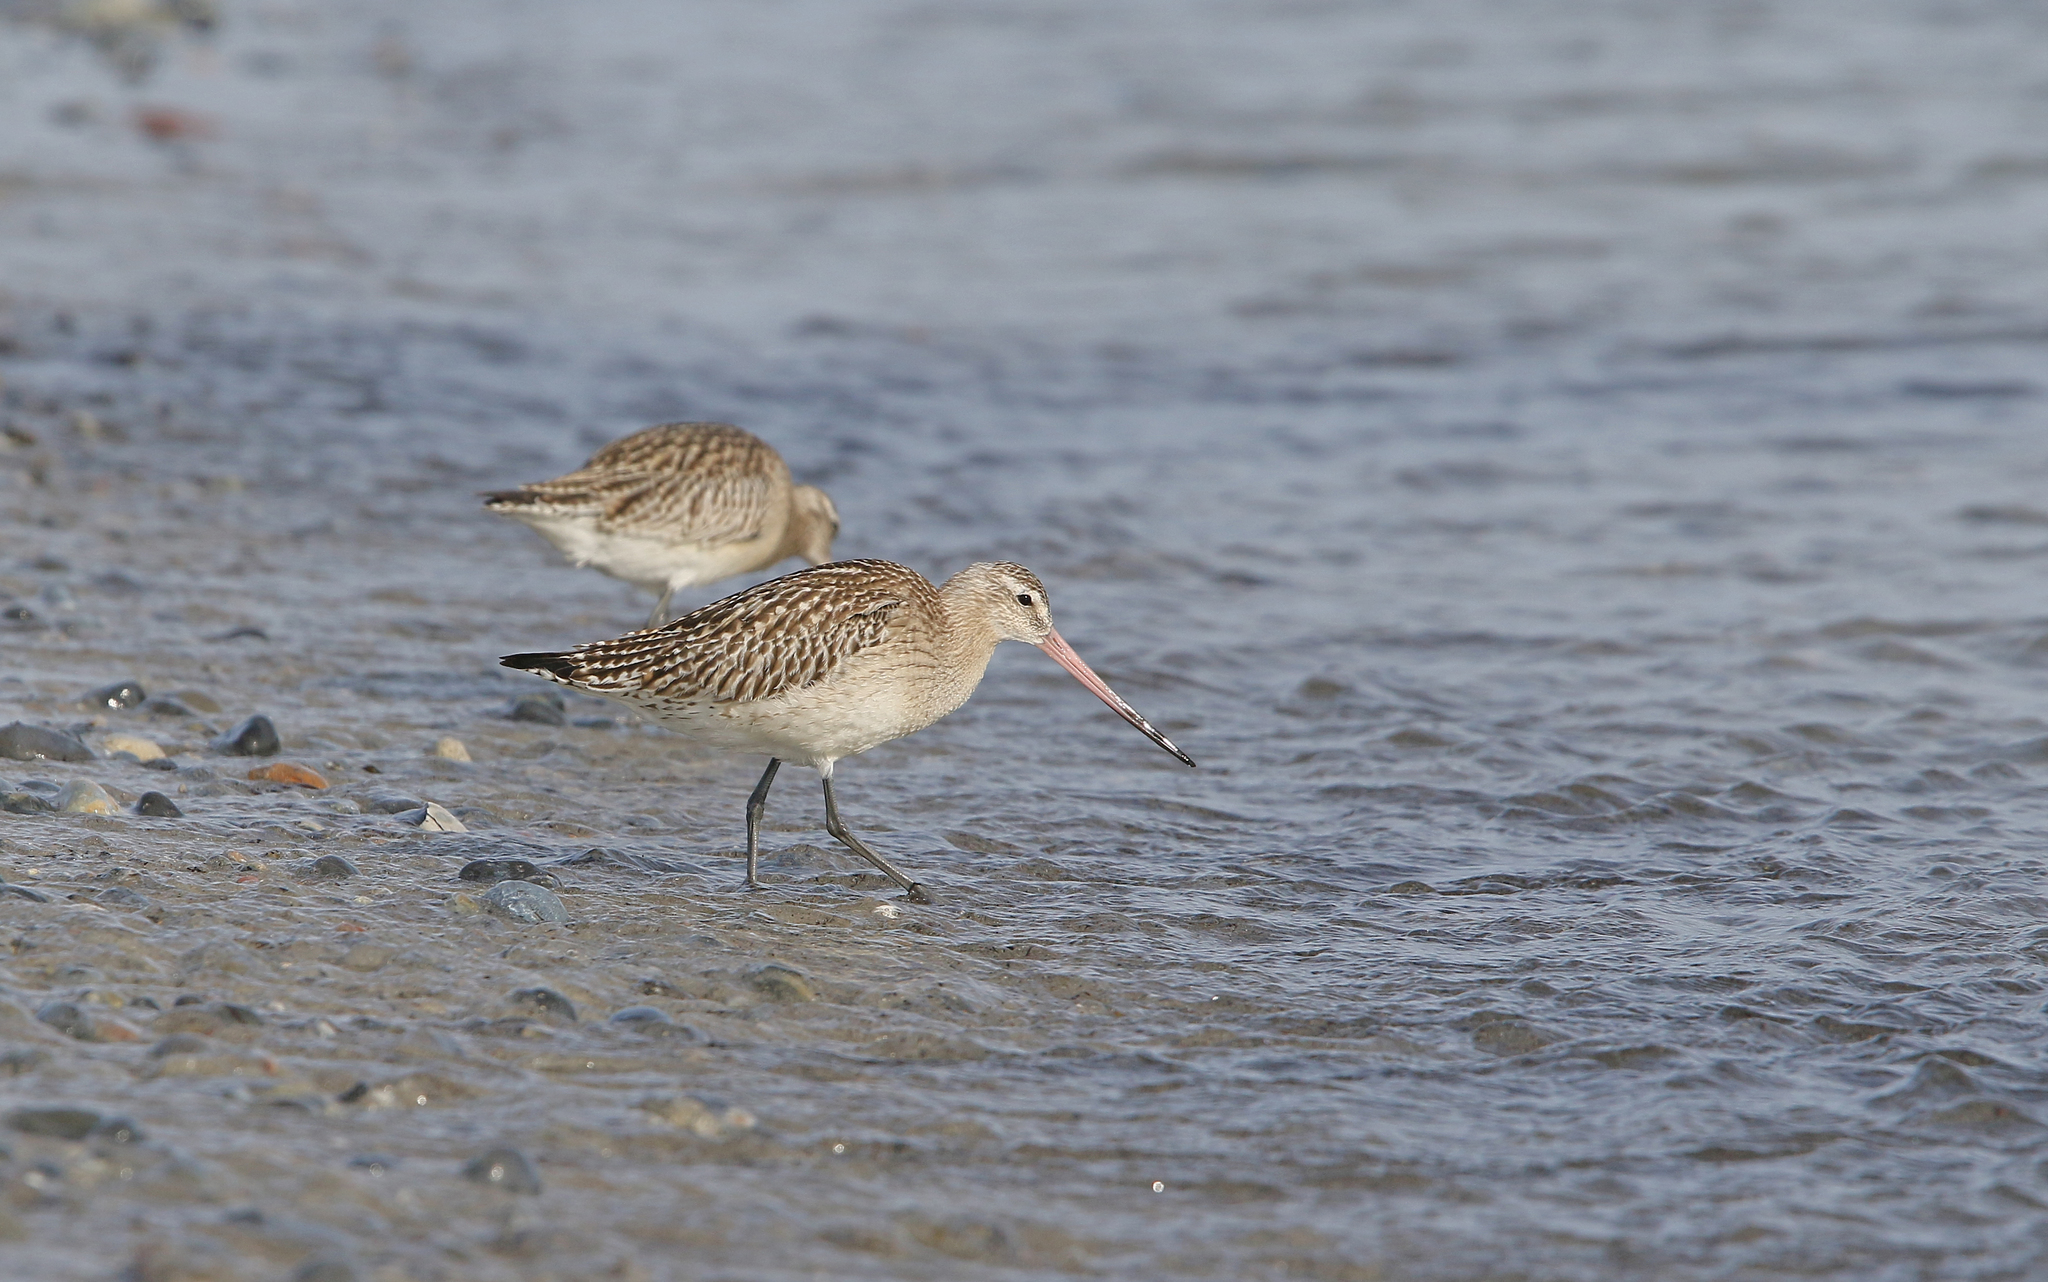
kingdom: Animalia
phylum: Chordata
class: Aves
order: Charadriiformes
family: Scolopacidae
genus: Limosa
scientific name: Limosa lapponica
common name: Bar-tailed godwit
